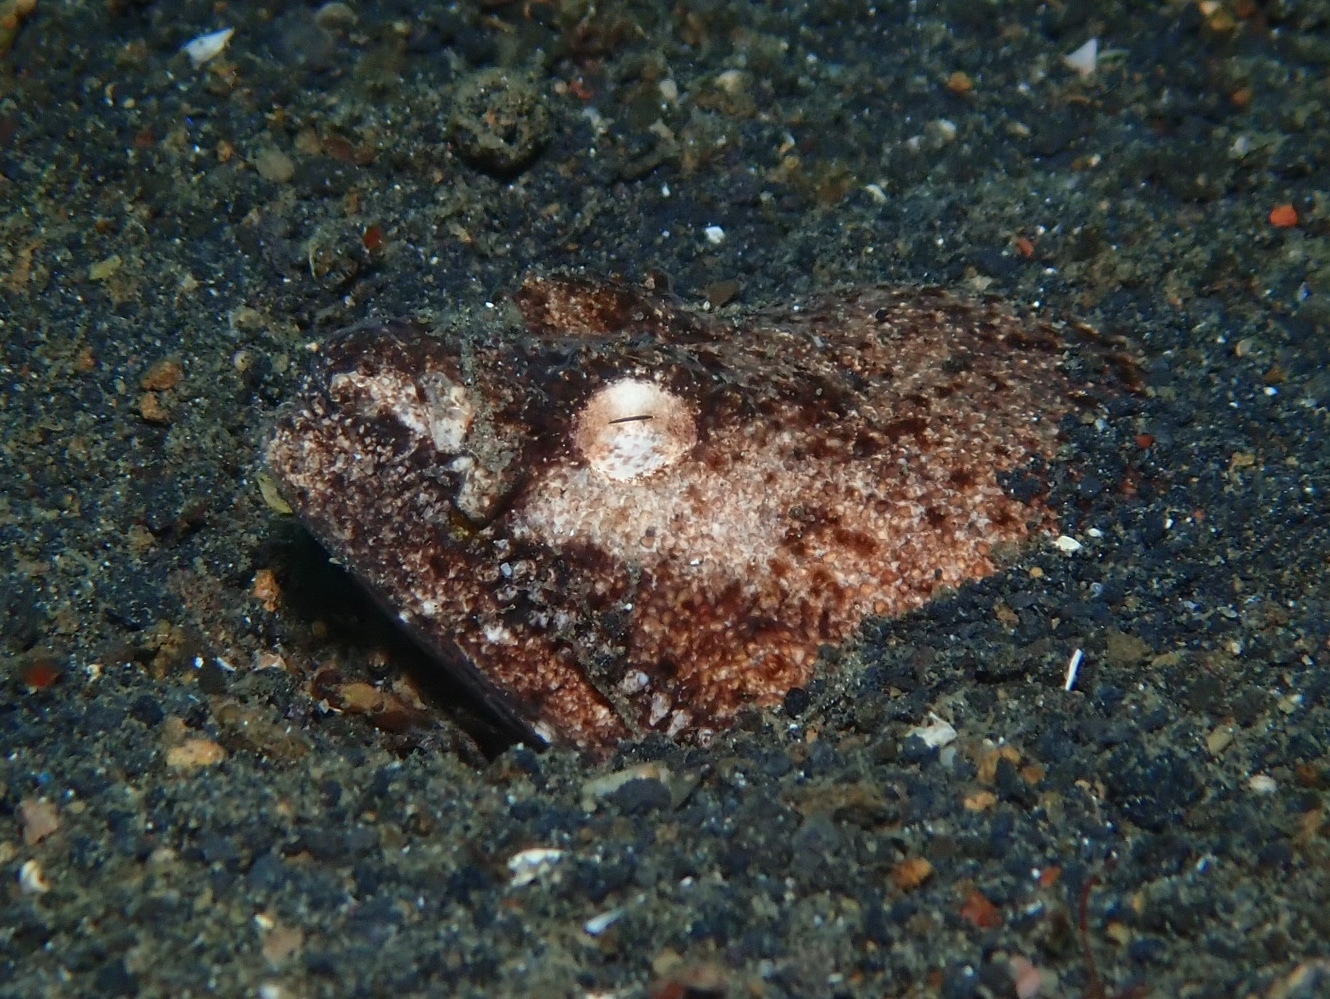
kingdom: Animalia
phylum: Chordata
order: Anguilliformes
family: Ophichthidae
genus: Brachysomophis
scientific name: Brachysomophis cirrocheilos
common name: Stargazer snake eel
